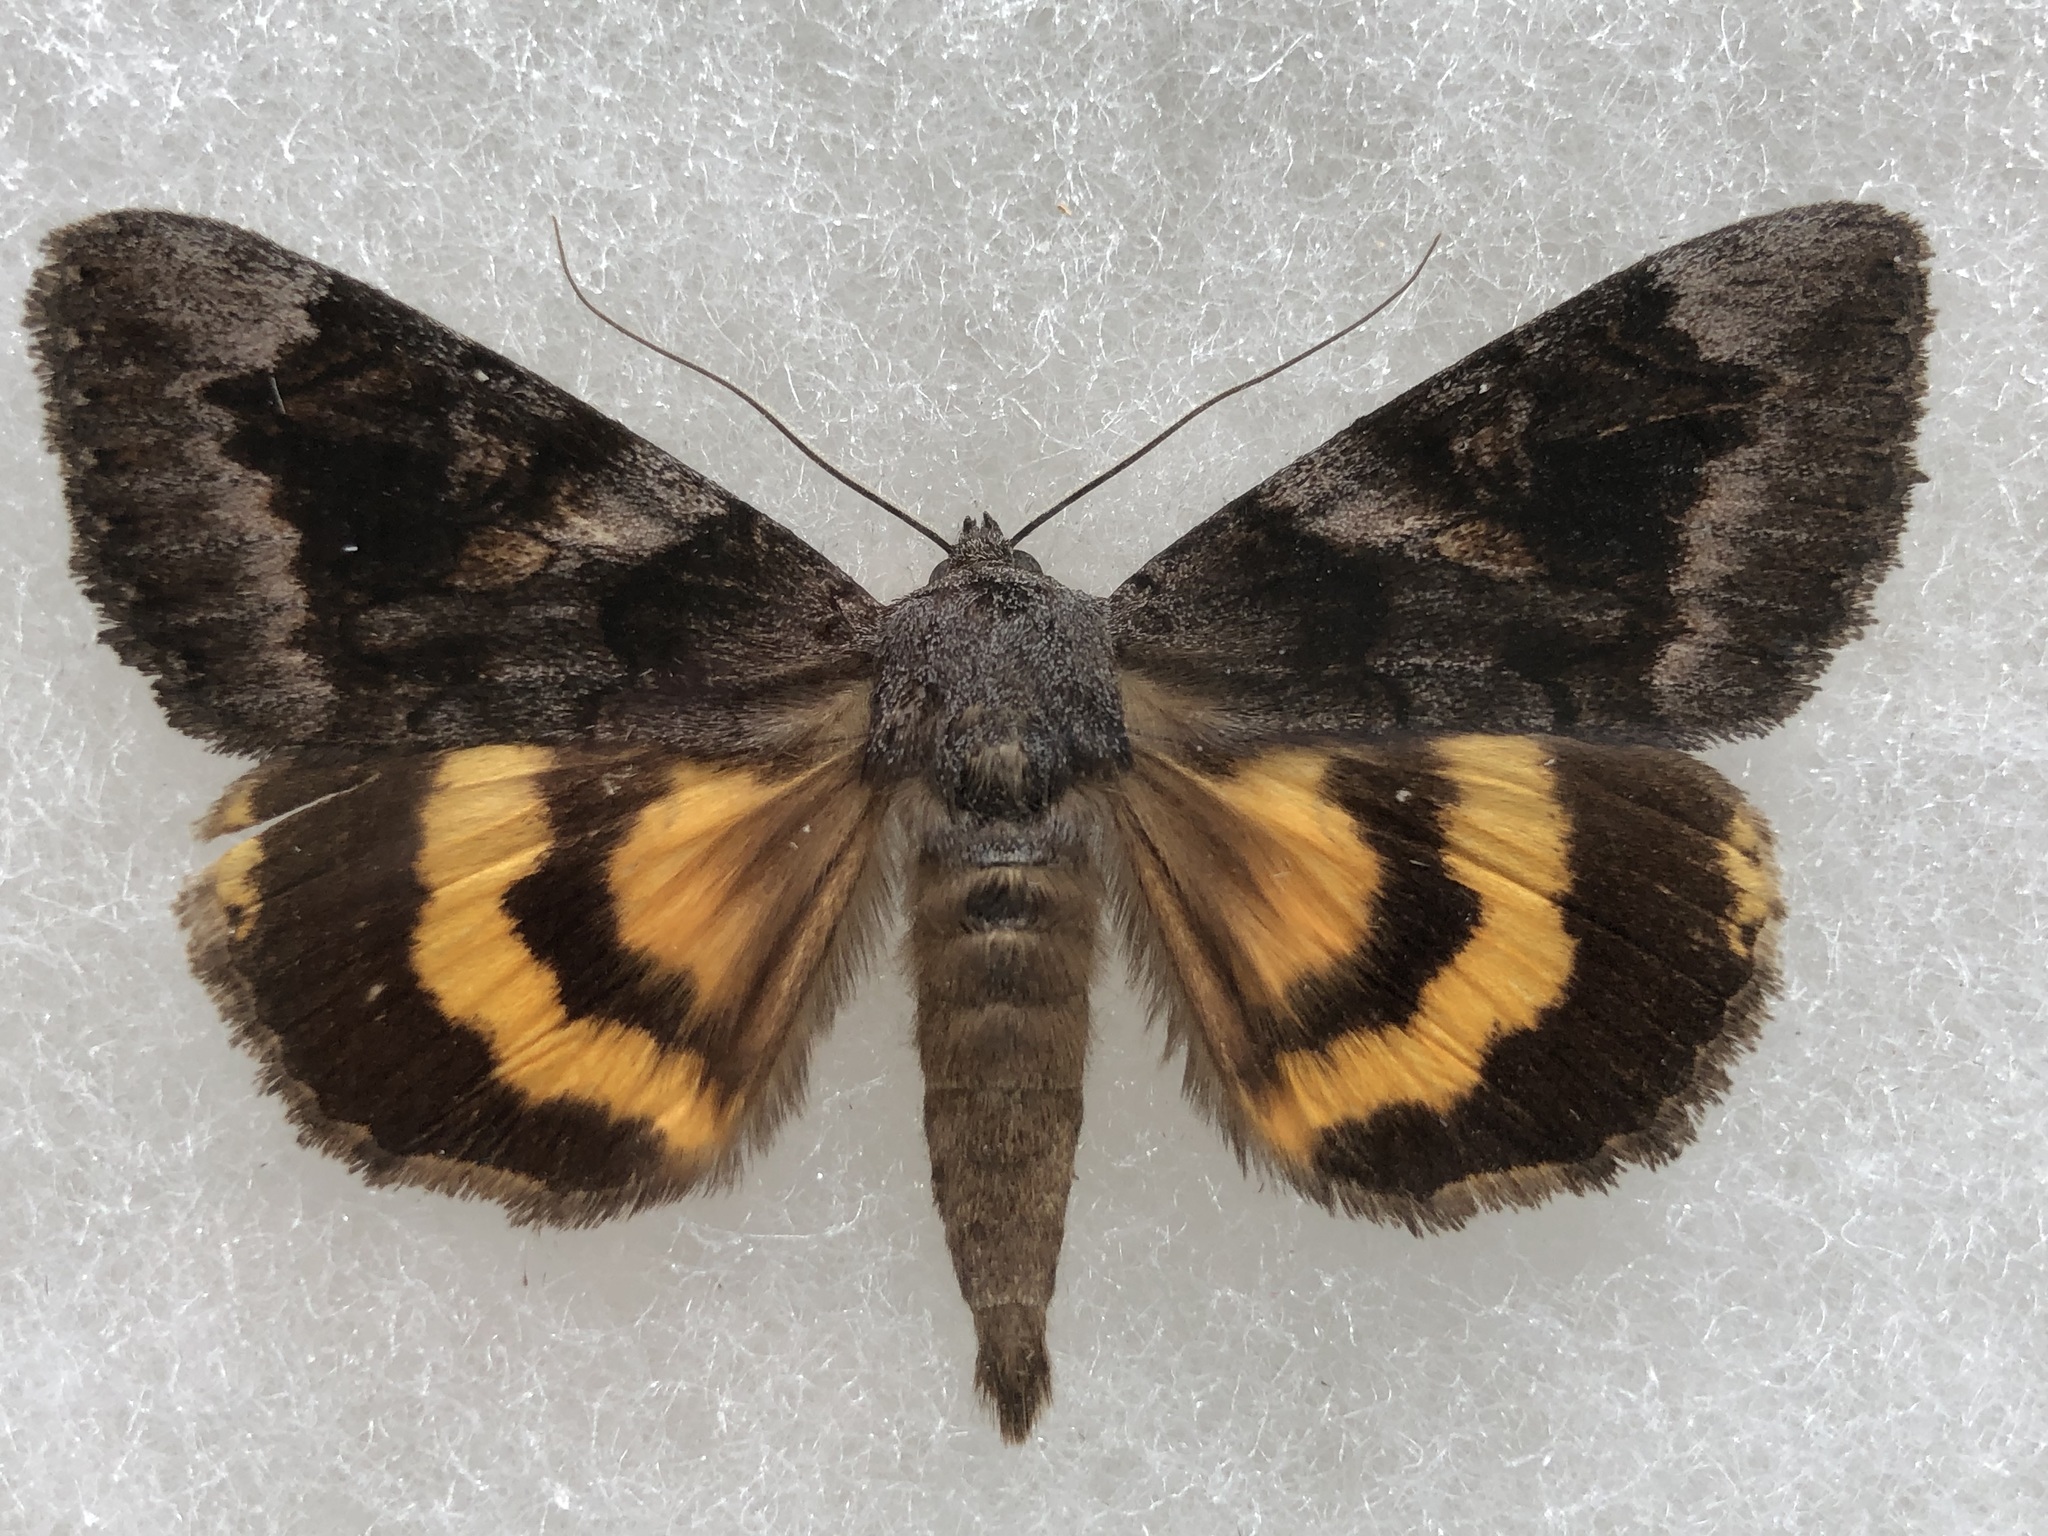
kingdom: Animalia
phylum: Arthropoda
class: Insecta
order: Lepidoptera
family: Erebidae
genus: Catocala
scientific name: Catocala badia
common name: Bay underwing
